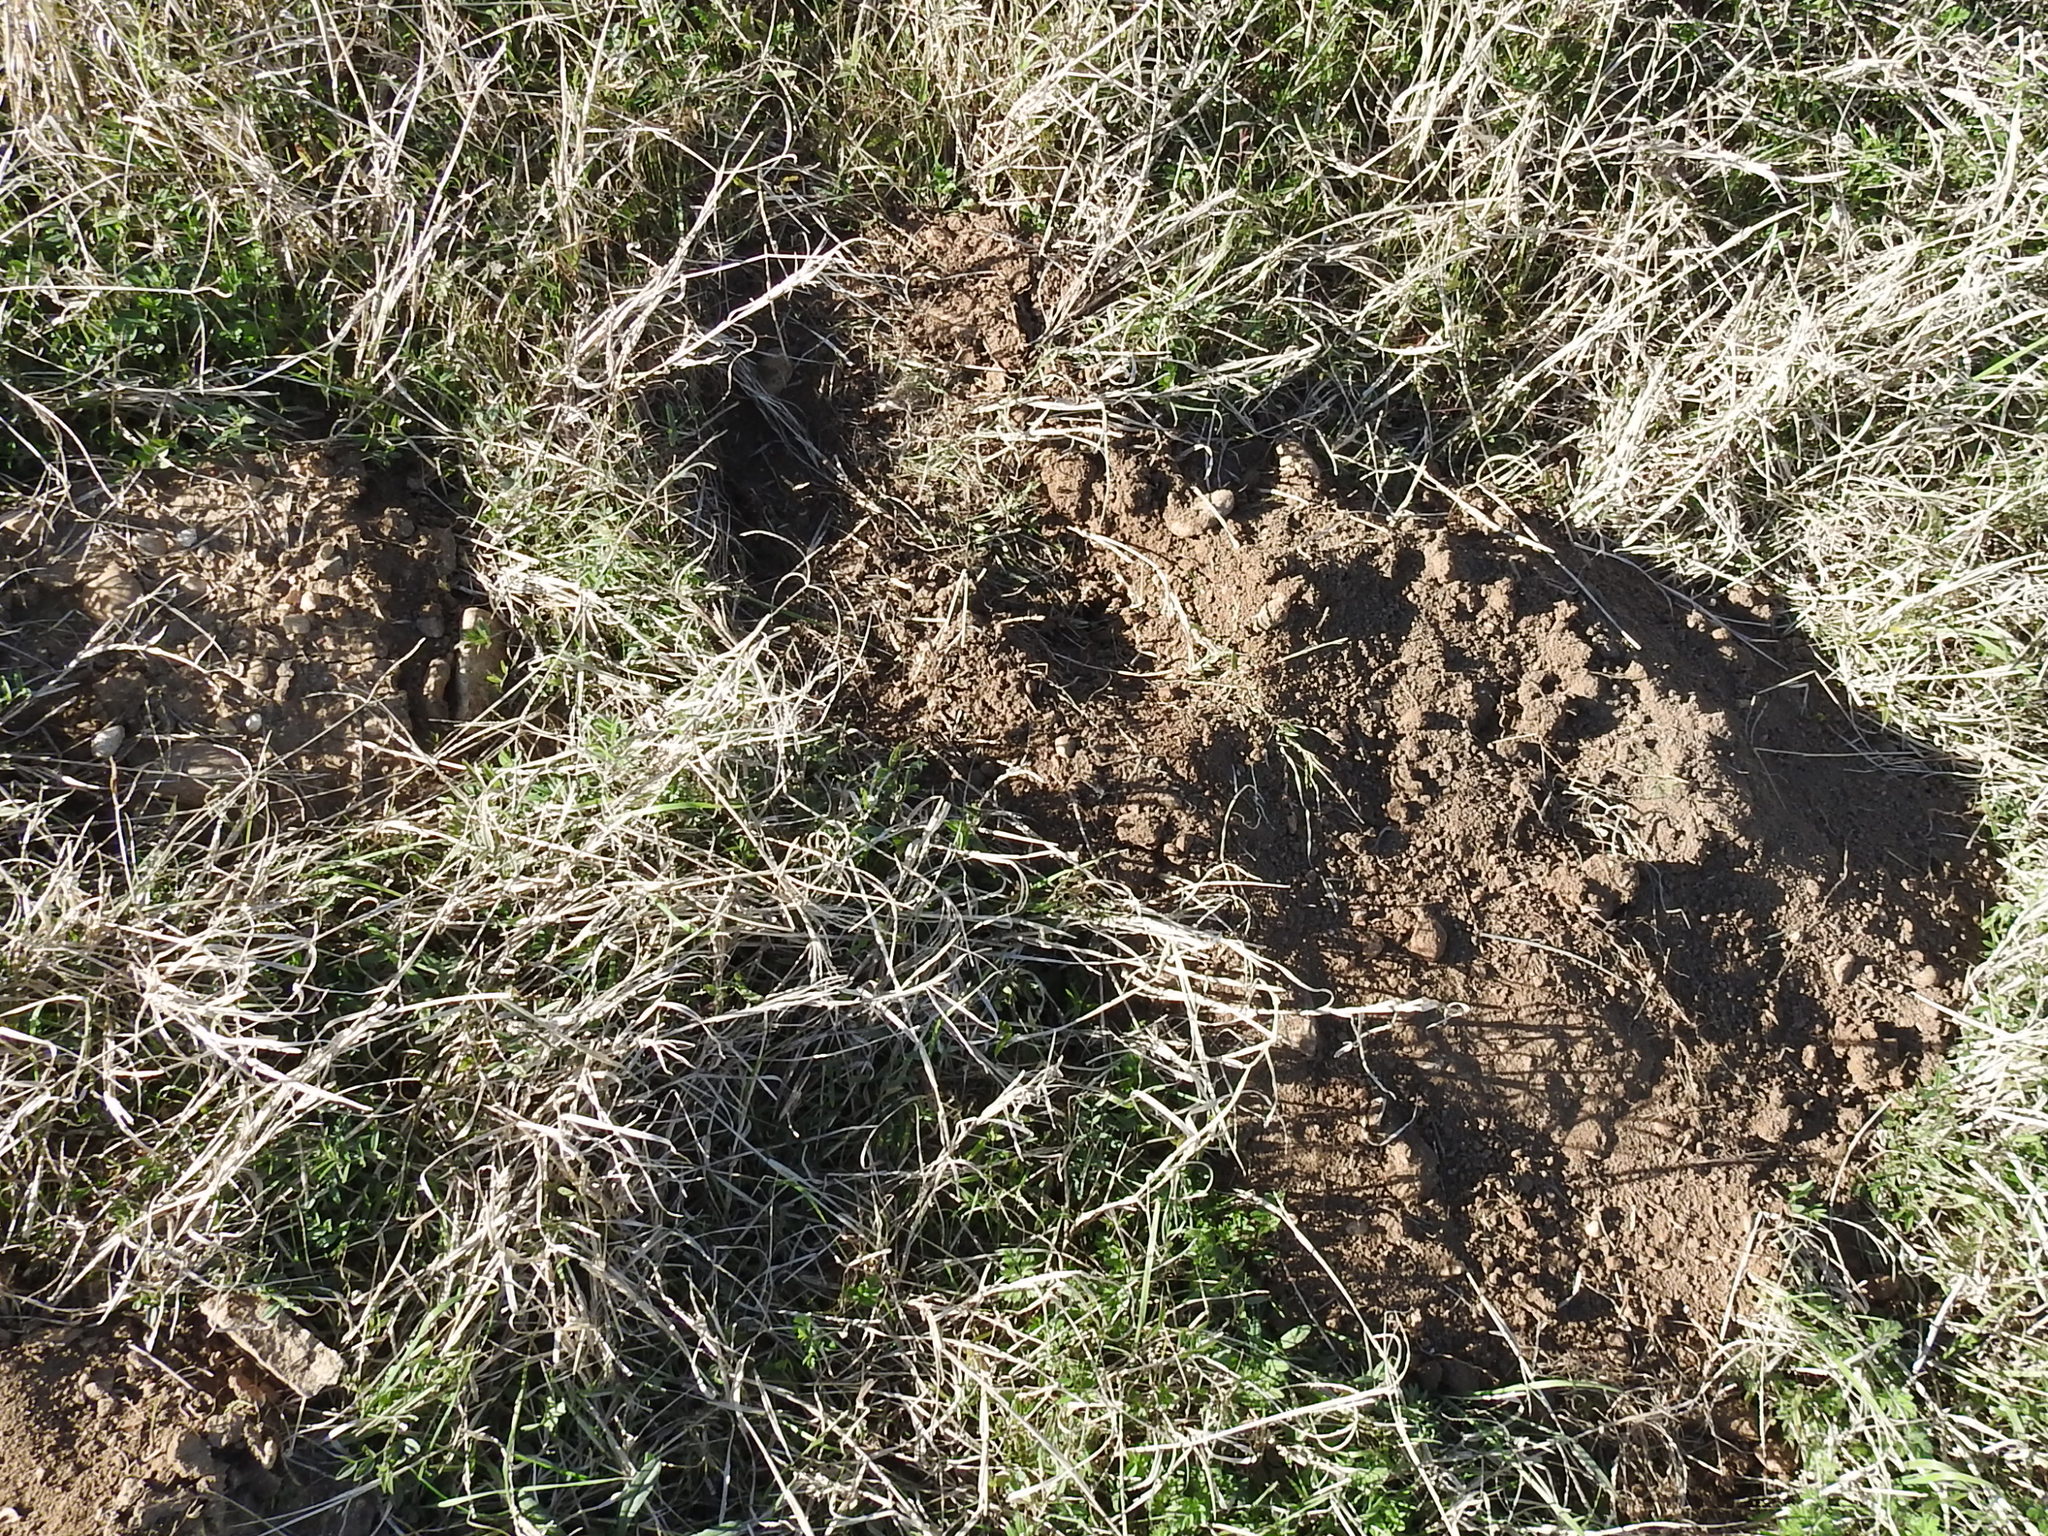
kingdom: Animalia
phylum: Chordata
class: Mammalia
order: Rodentia
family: Geomyidae
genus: Geomys
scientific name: Geomys bursarius
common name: Plains pocket gopher
